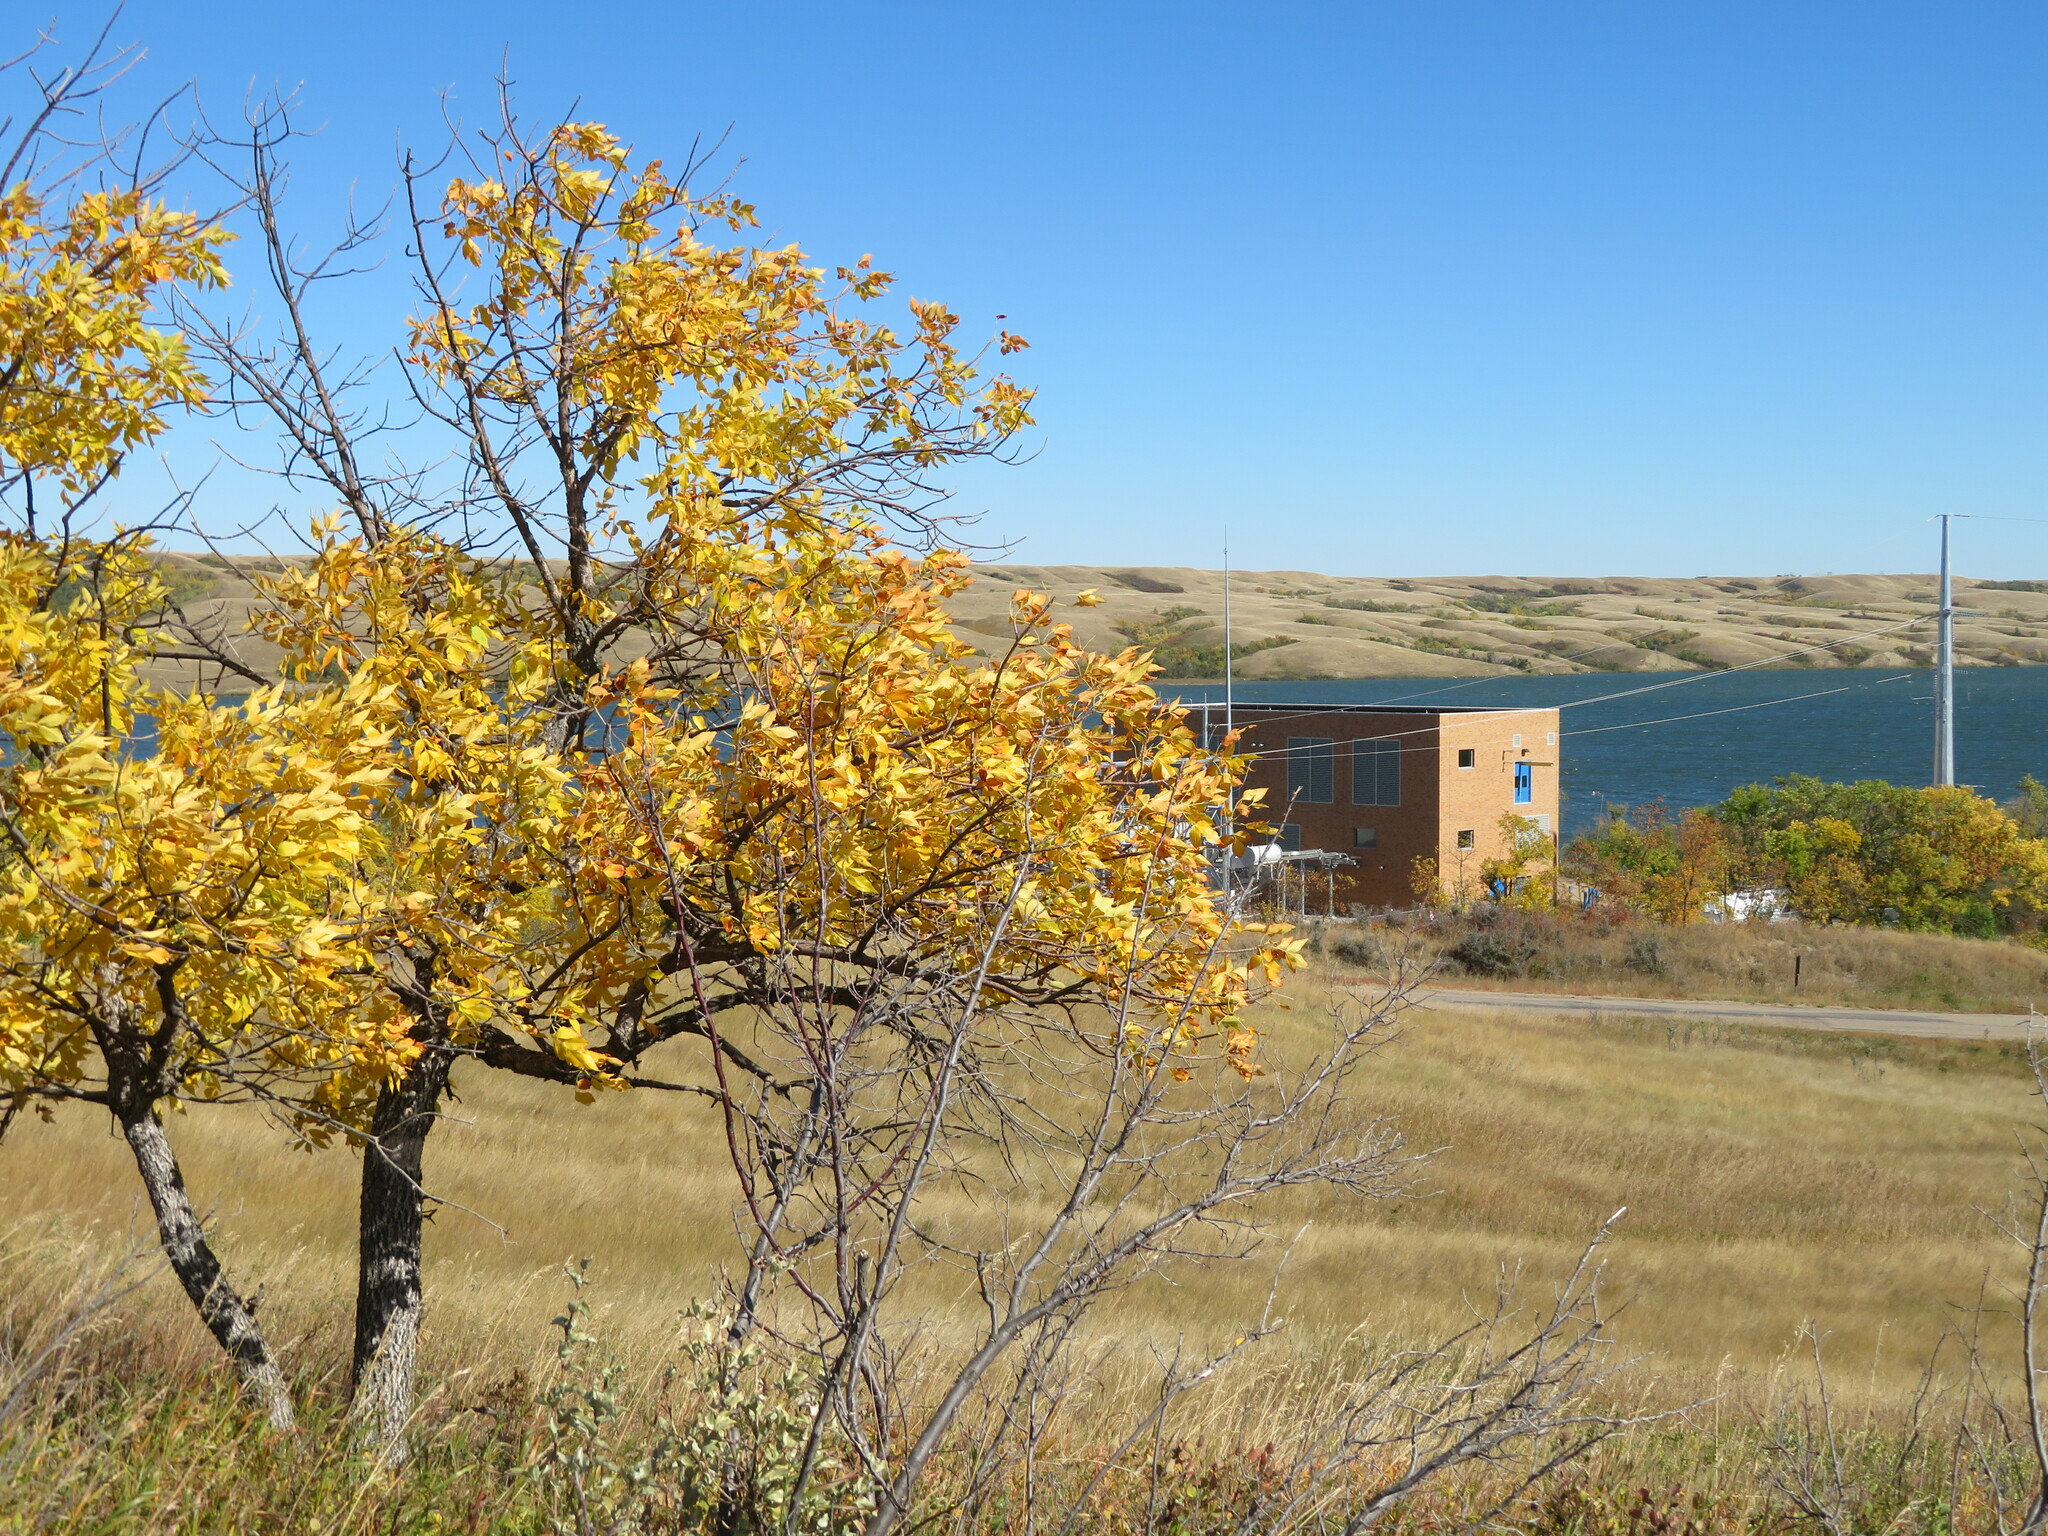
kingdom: Plantae
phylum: Tracheophyta
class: Magnoliopsida
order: Lamiales
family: Oleaceae
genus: Fraxinus
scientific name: Fraxinus pennsylvanica
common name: Green ash
